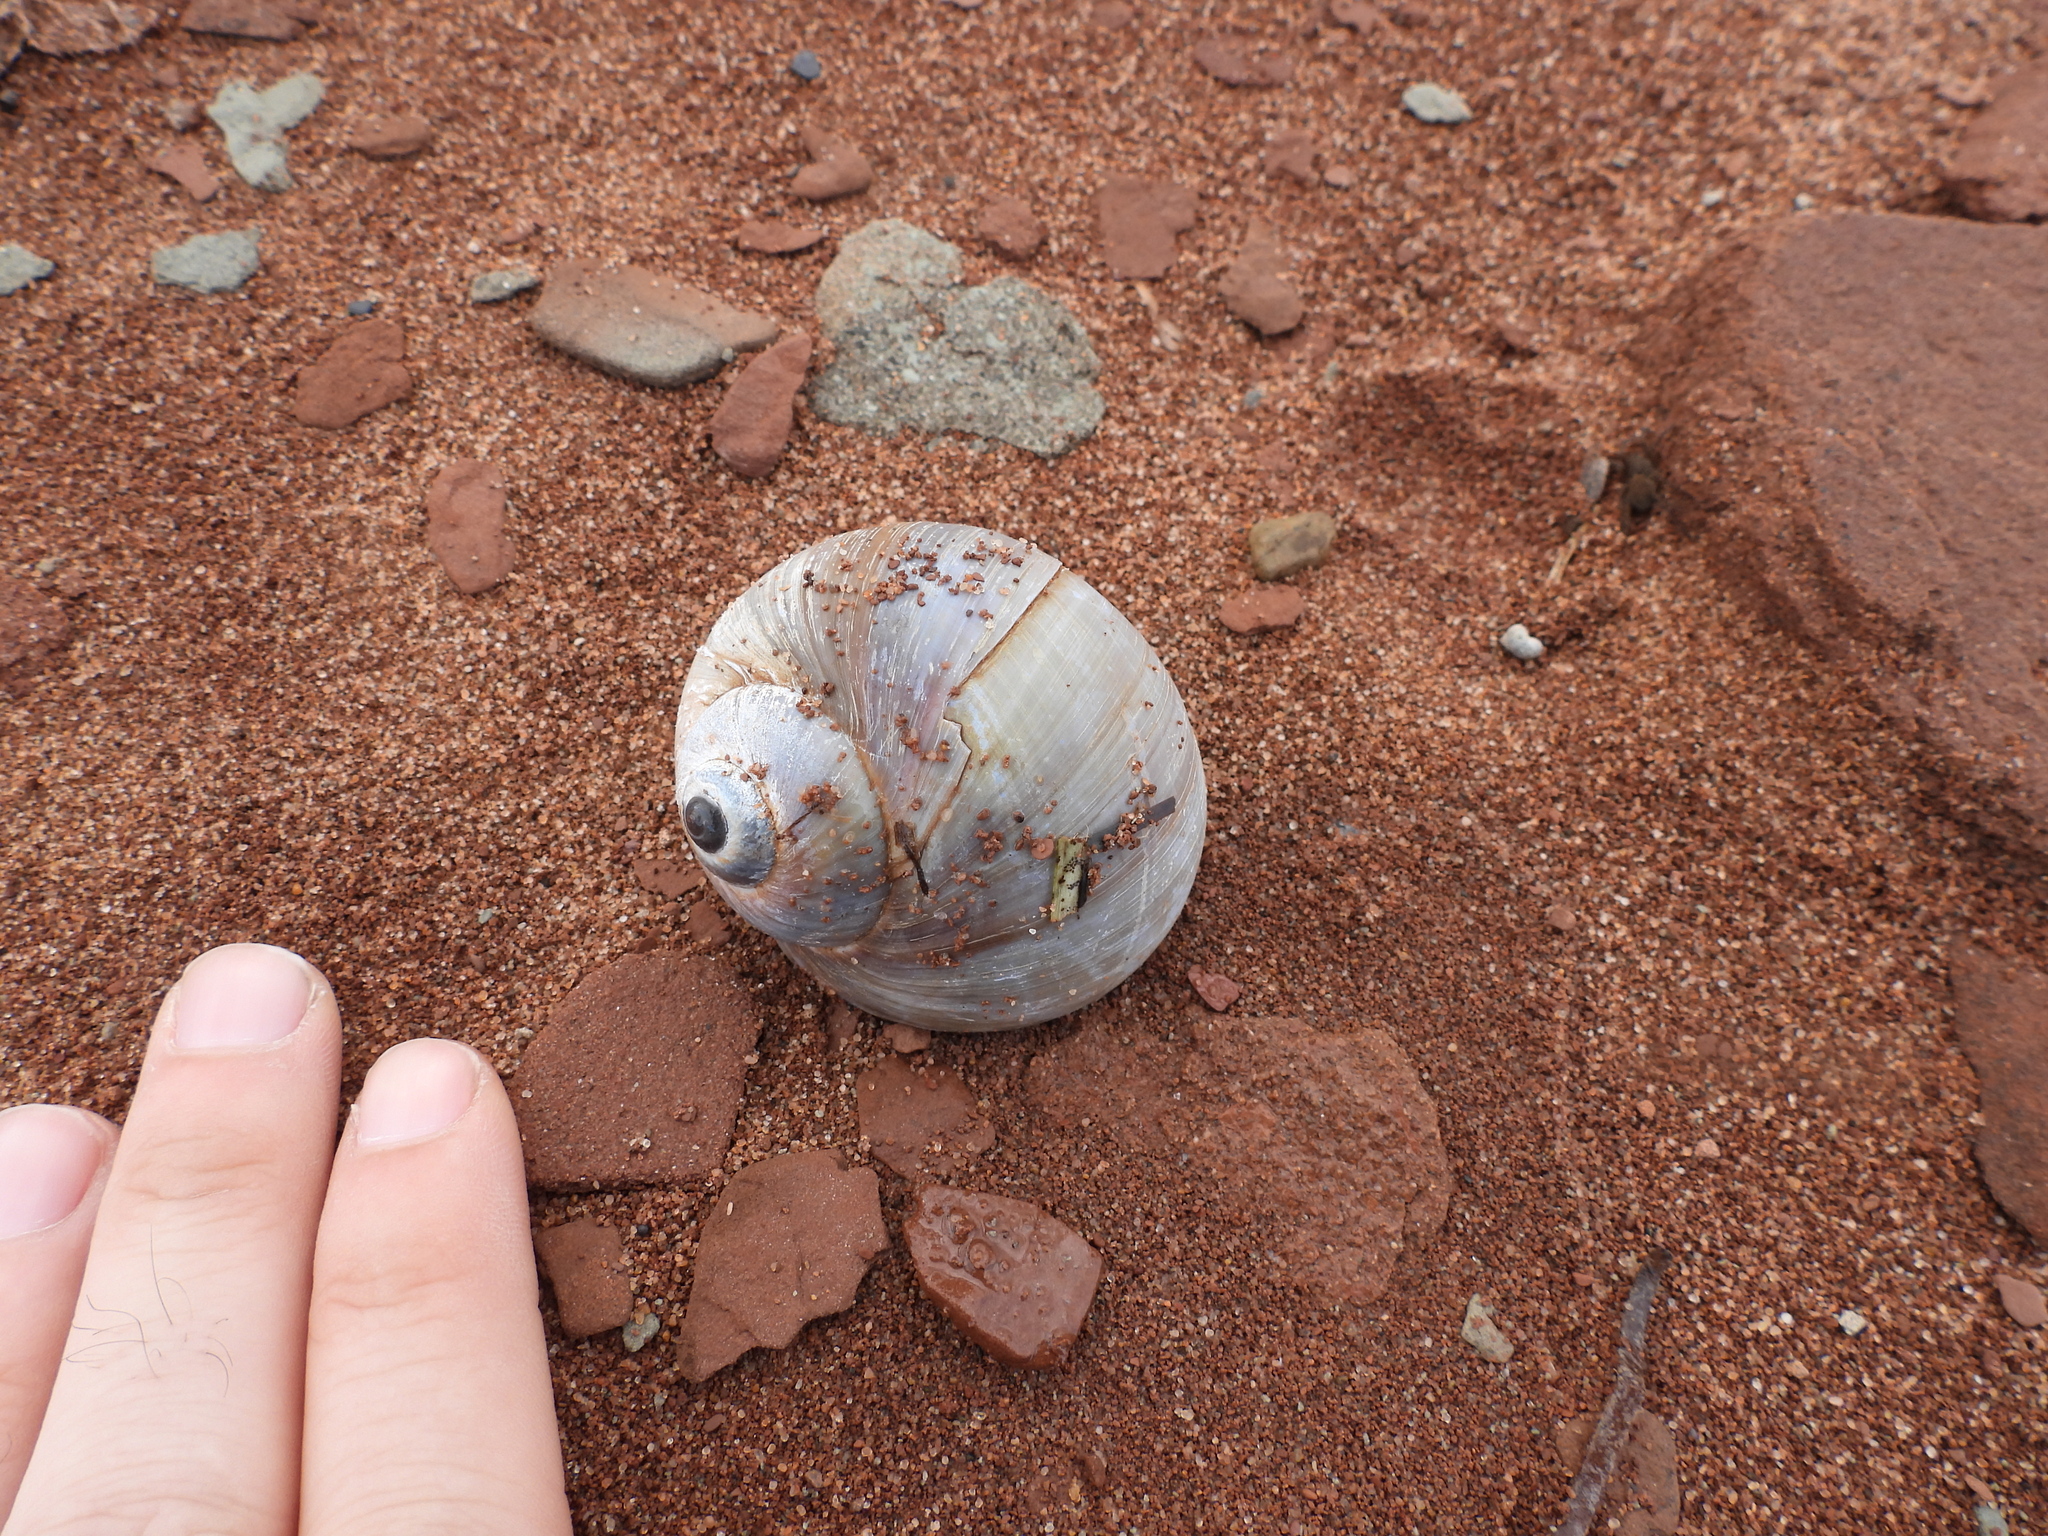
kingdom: Animalia
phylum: Mollusca
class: Gastropoda
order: Littorinimorpha
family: Naticidae
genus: Euspira
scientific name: Euspira heros
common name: Common northern moonsnail
